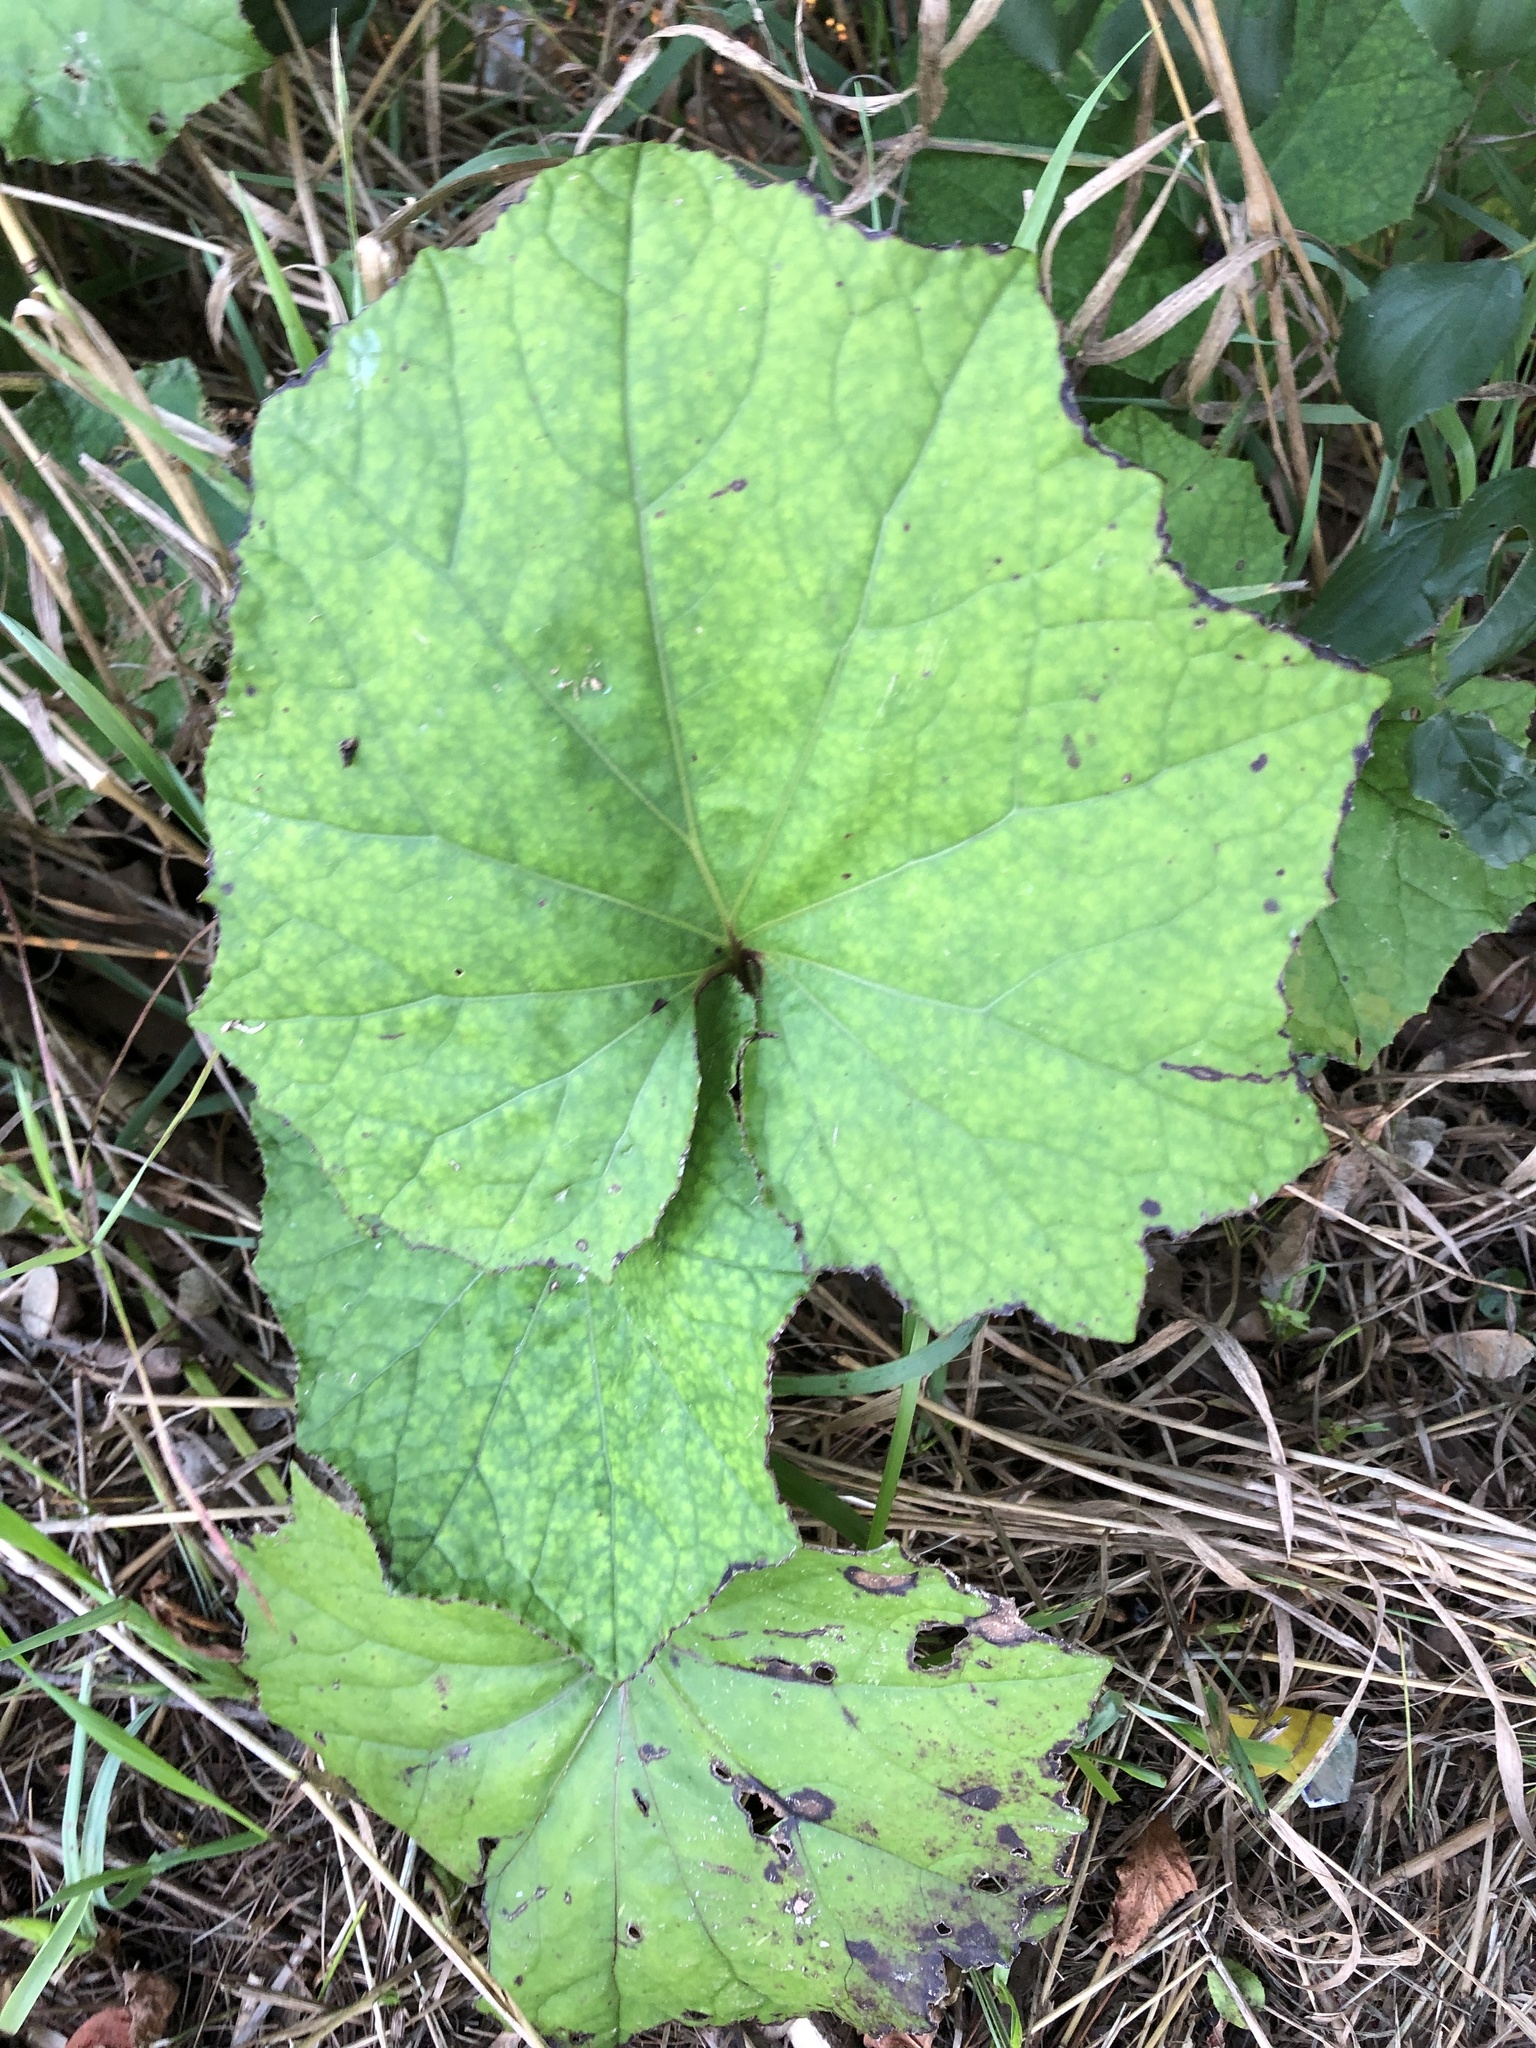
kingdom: Plantae
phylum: Tracheophyta
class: Magnoliopsida
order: Asterales
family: Asteraceae
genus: Tussilago
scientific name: Tussilago farfara
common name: Coltsfoot
